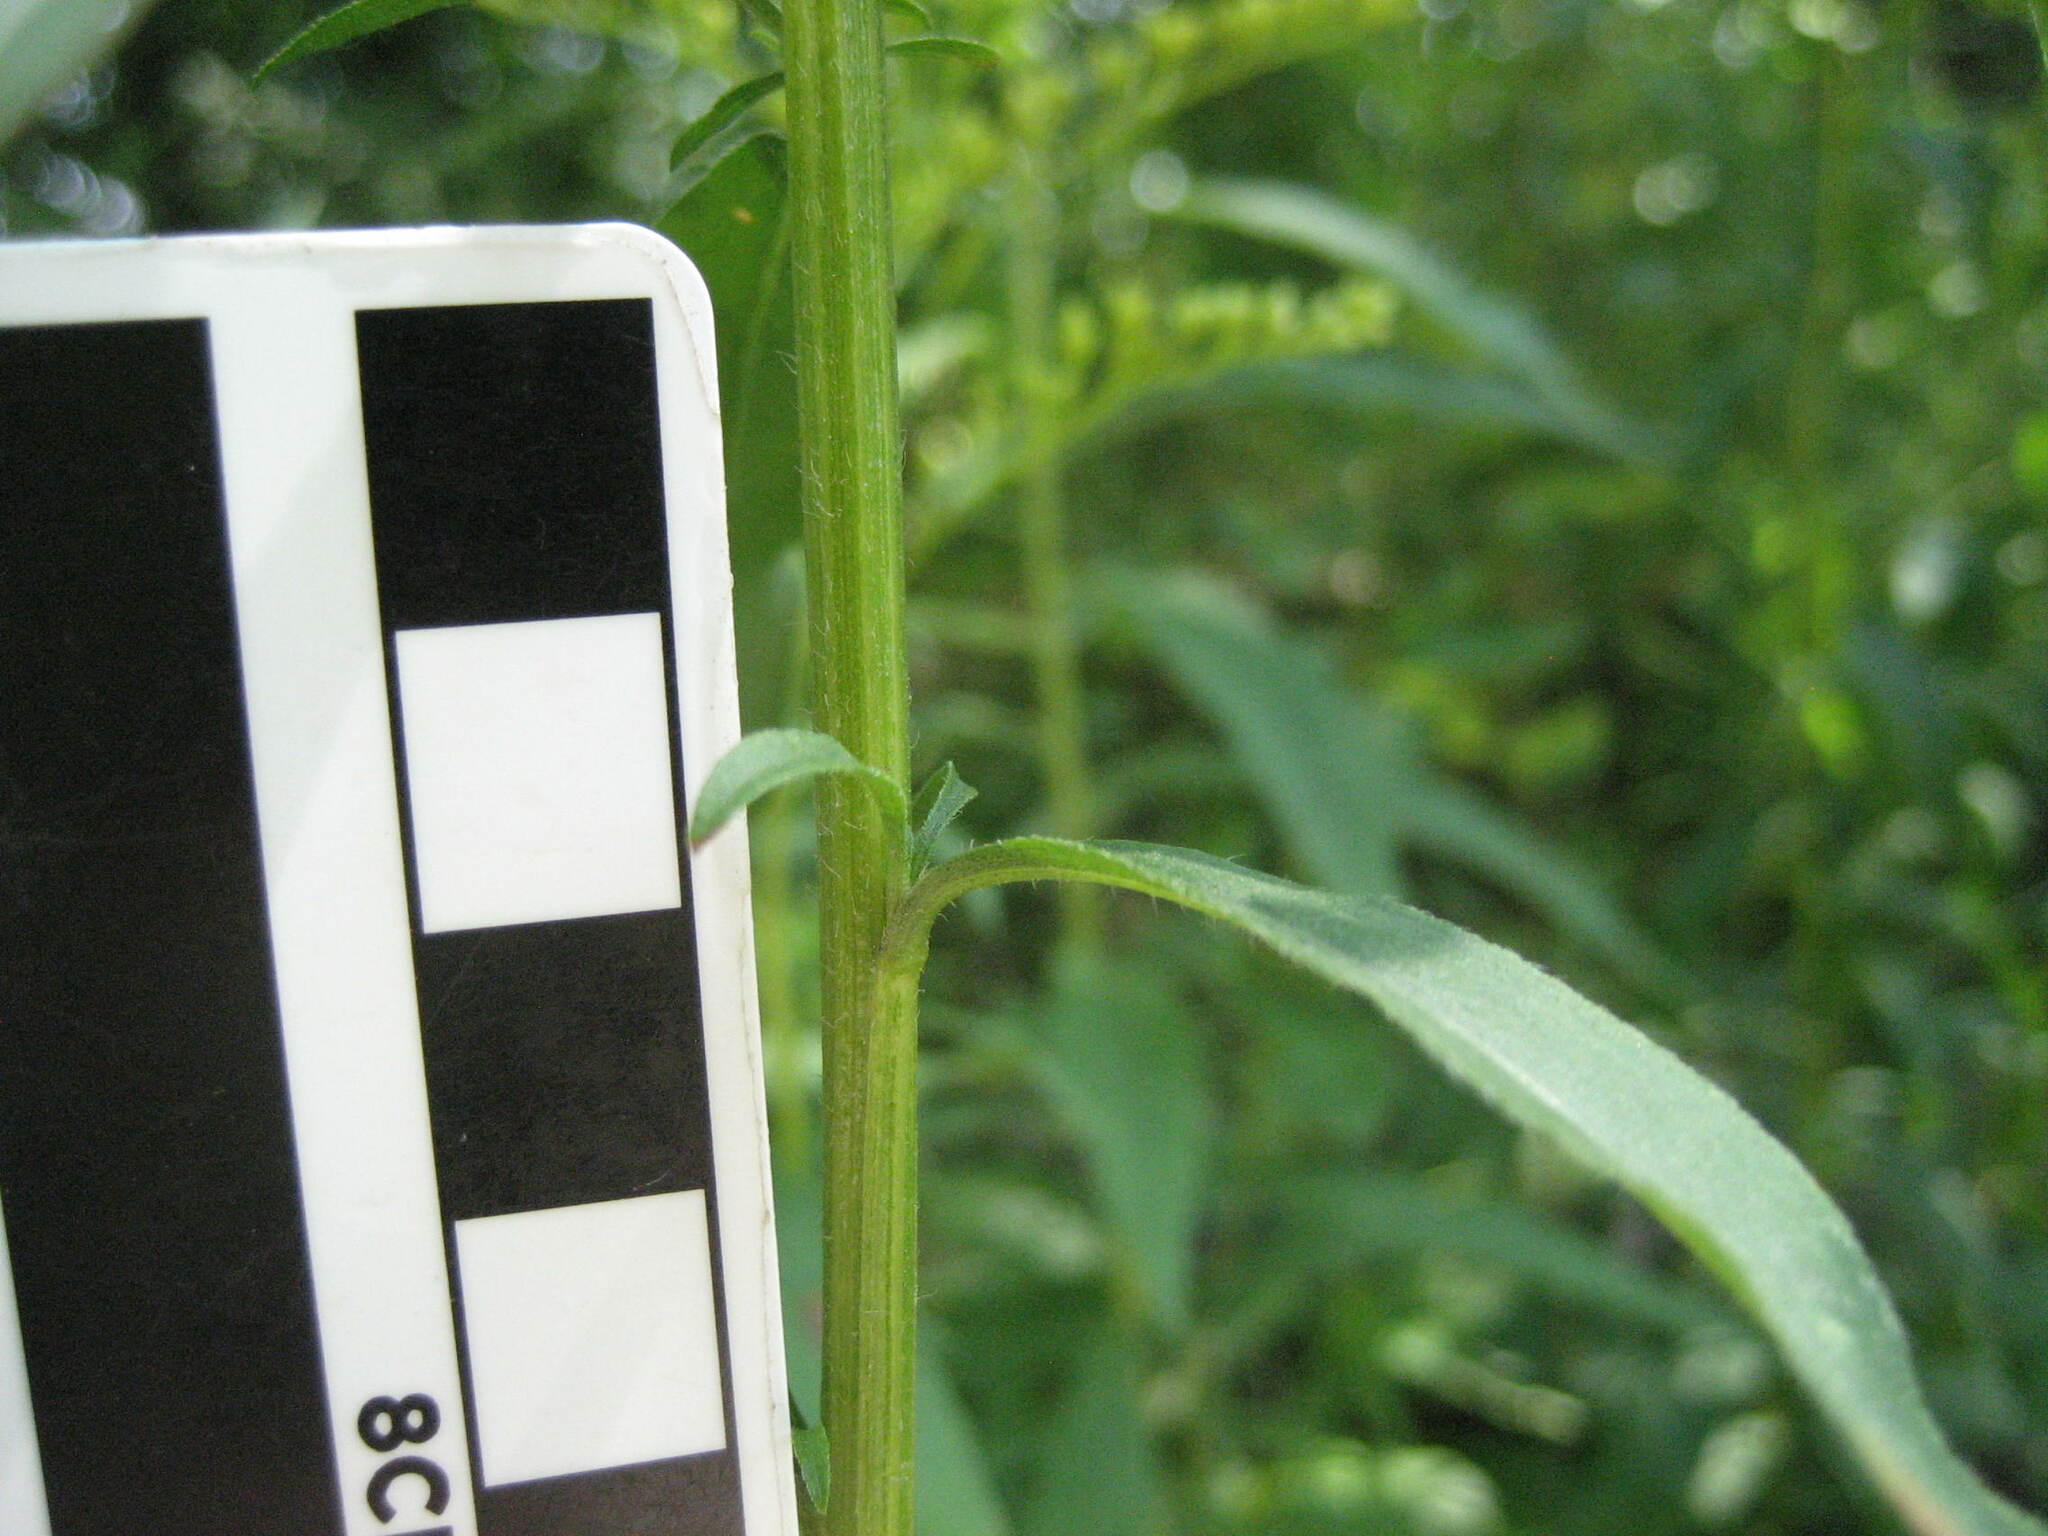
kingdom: Plantae
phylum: Tracheophyta
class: Magnoliopsida
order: Asterales
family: Asteraceae
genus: Solidago
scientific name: Solidago juncea
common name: Early goldenrod
